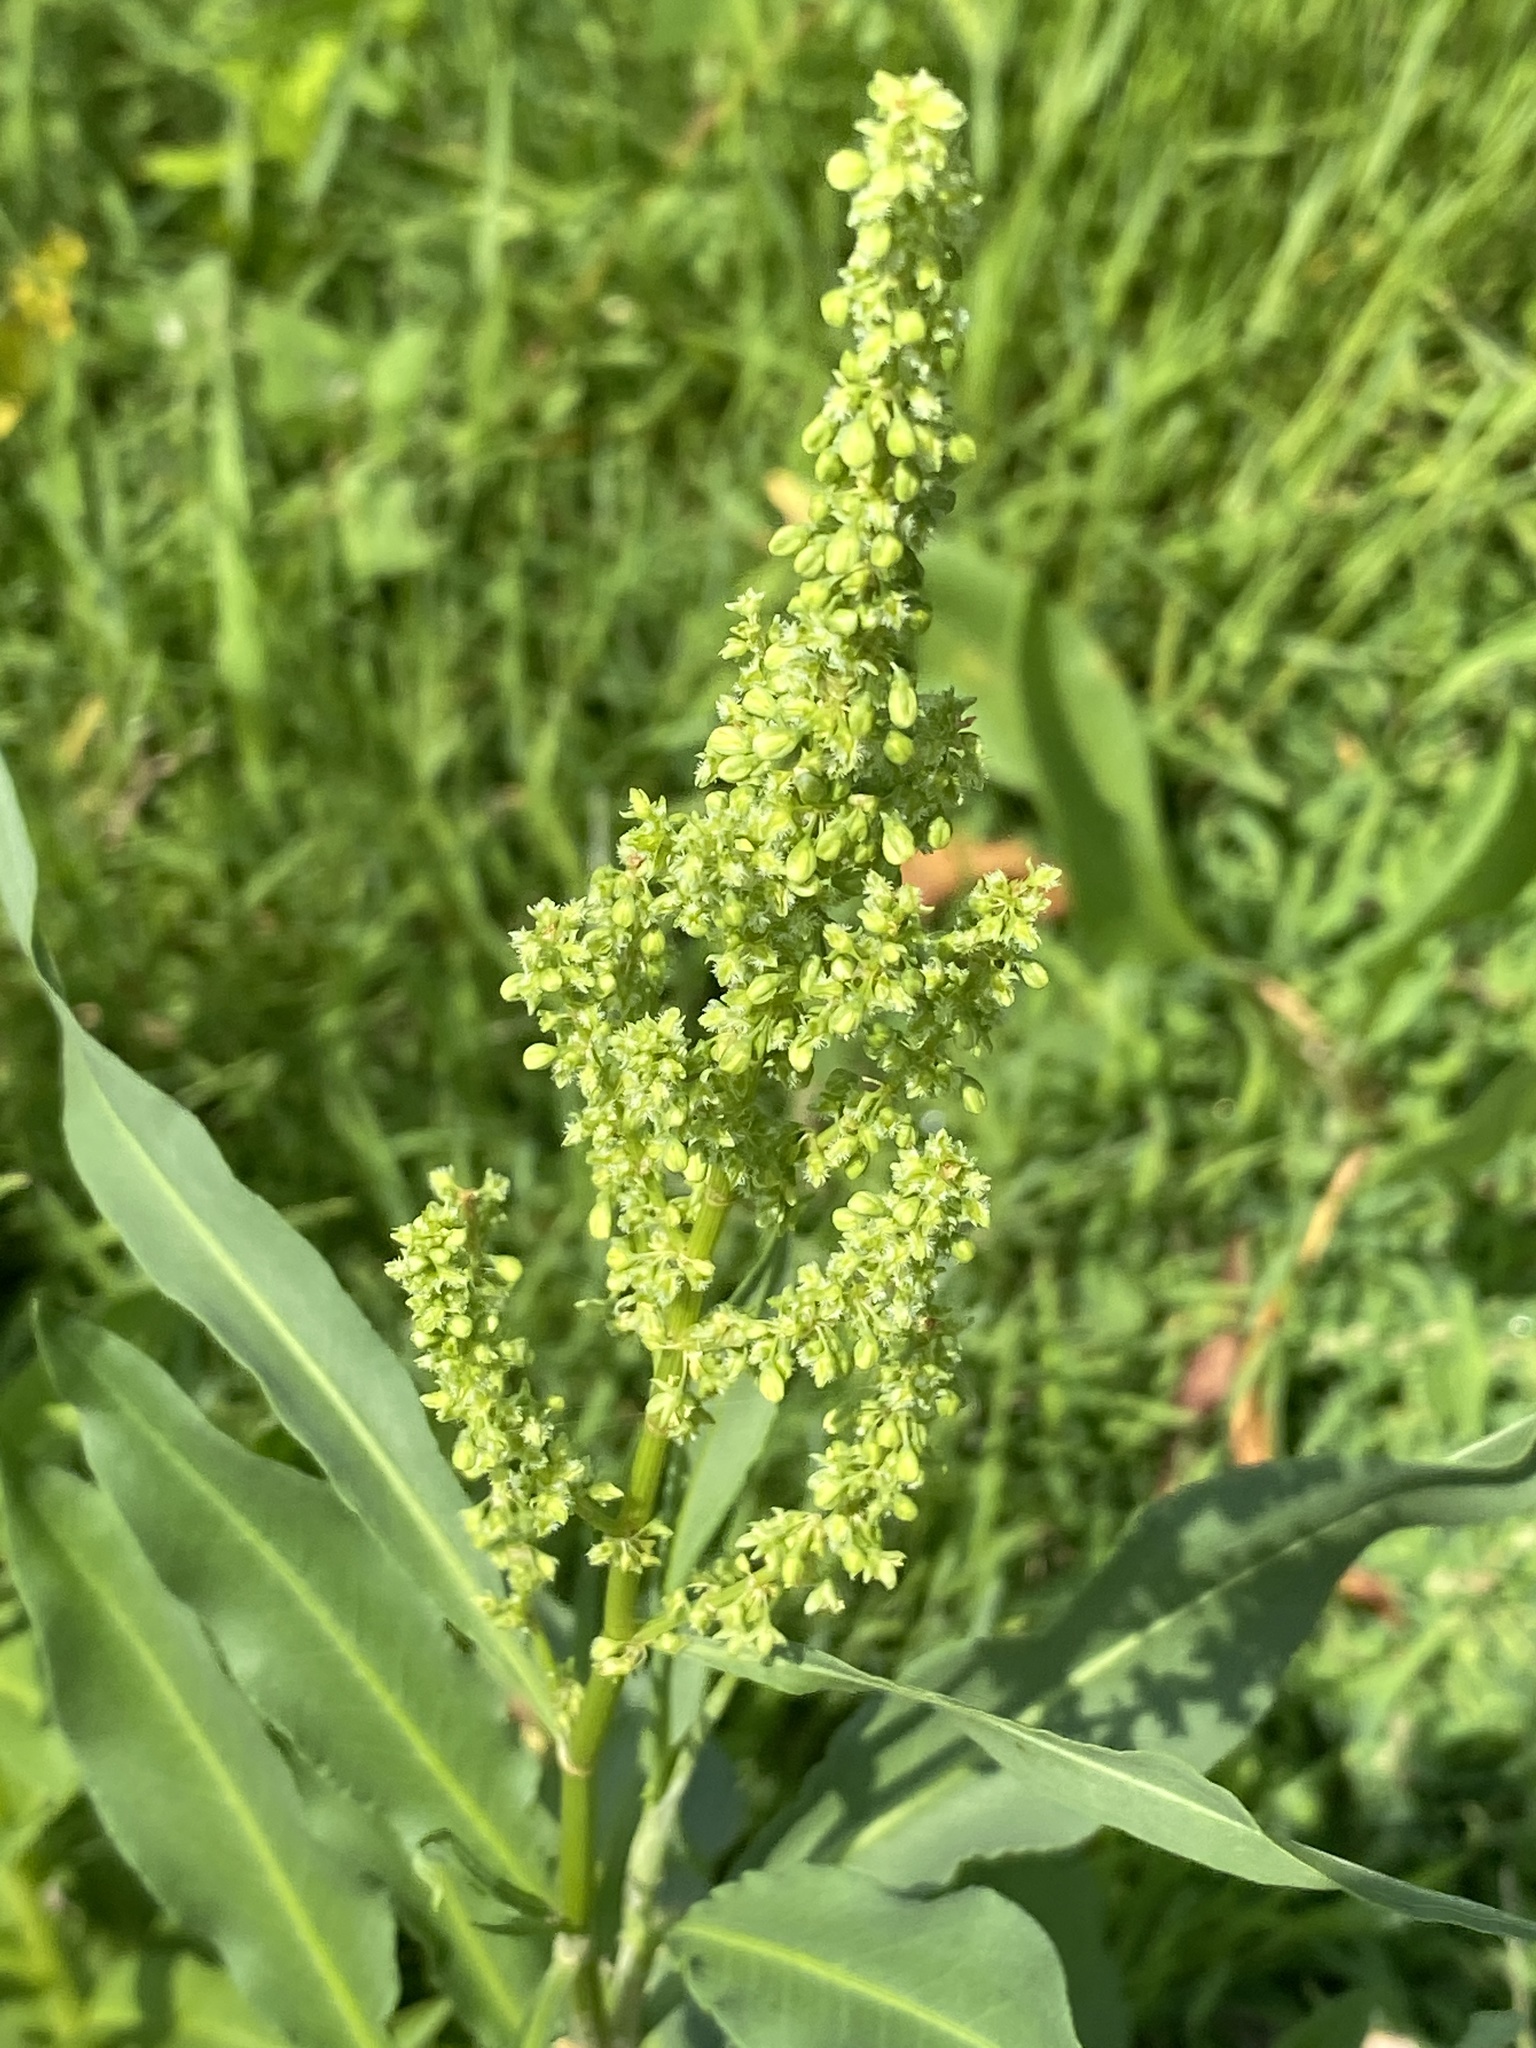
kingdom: Plantae
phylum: Tracheophyta
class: Magnoliopsida
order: Caryophyllales
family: Polygonaceae
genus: Rumex
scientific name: Rumex triangulivalvis
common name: Triangular-valve dock
